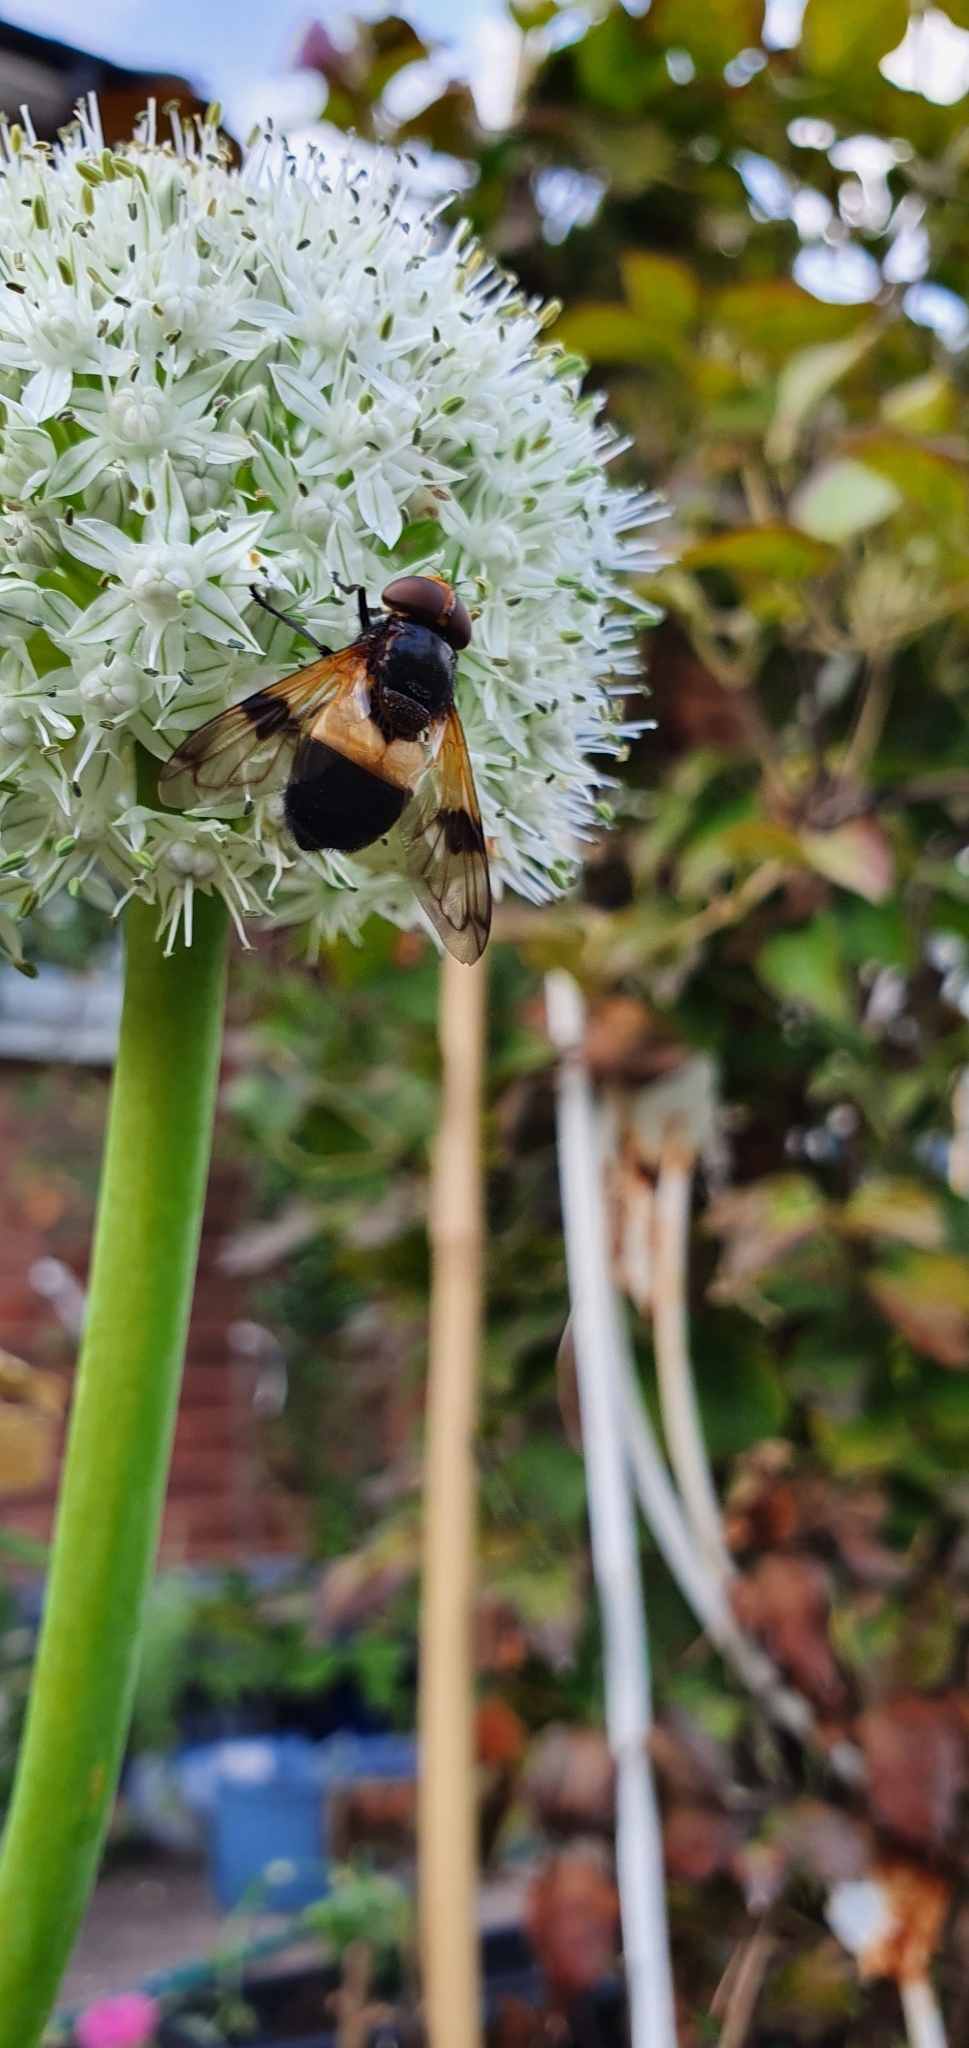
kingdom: Animalia
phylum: Arthropoda
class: Insecta
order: Diptera
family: Syrphidae
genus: Volucella
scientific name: Volucella pellucens
